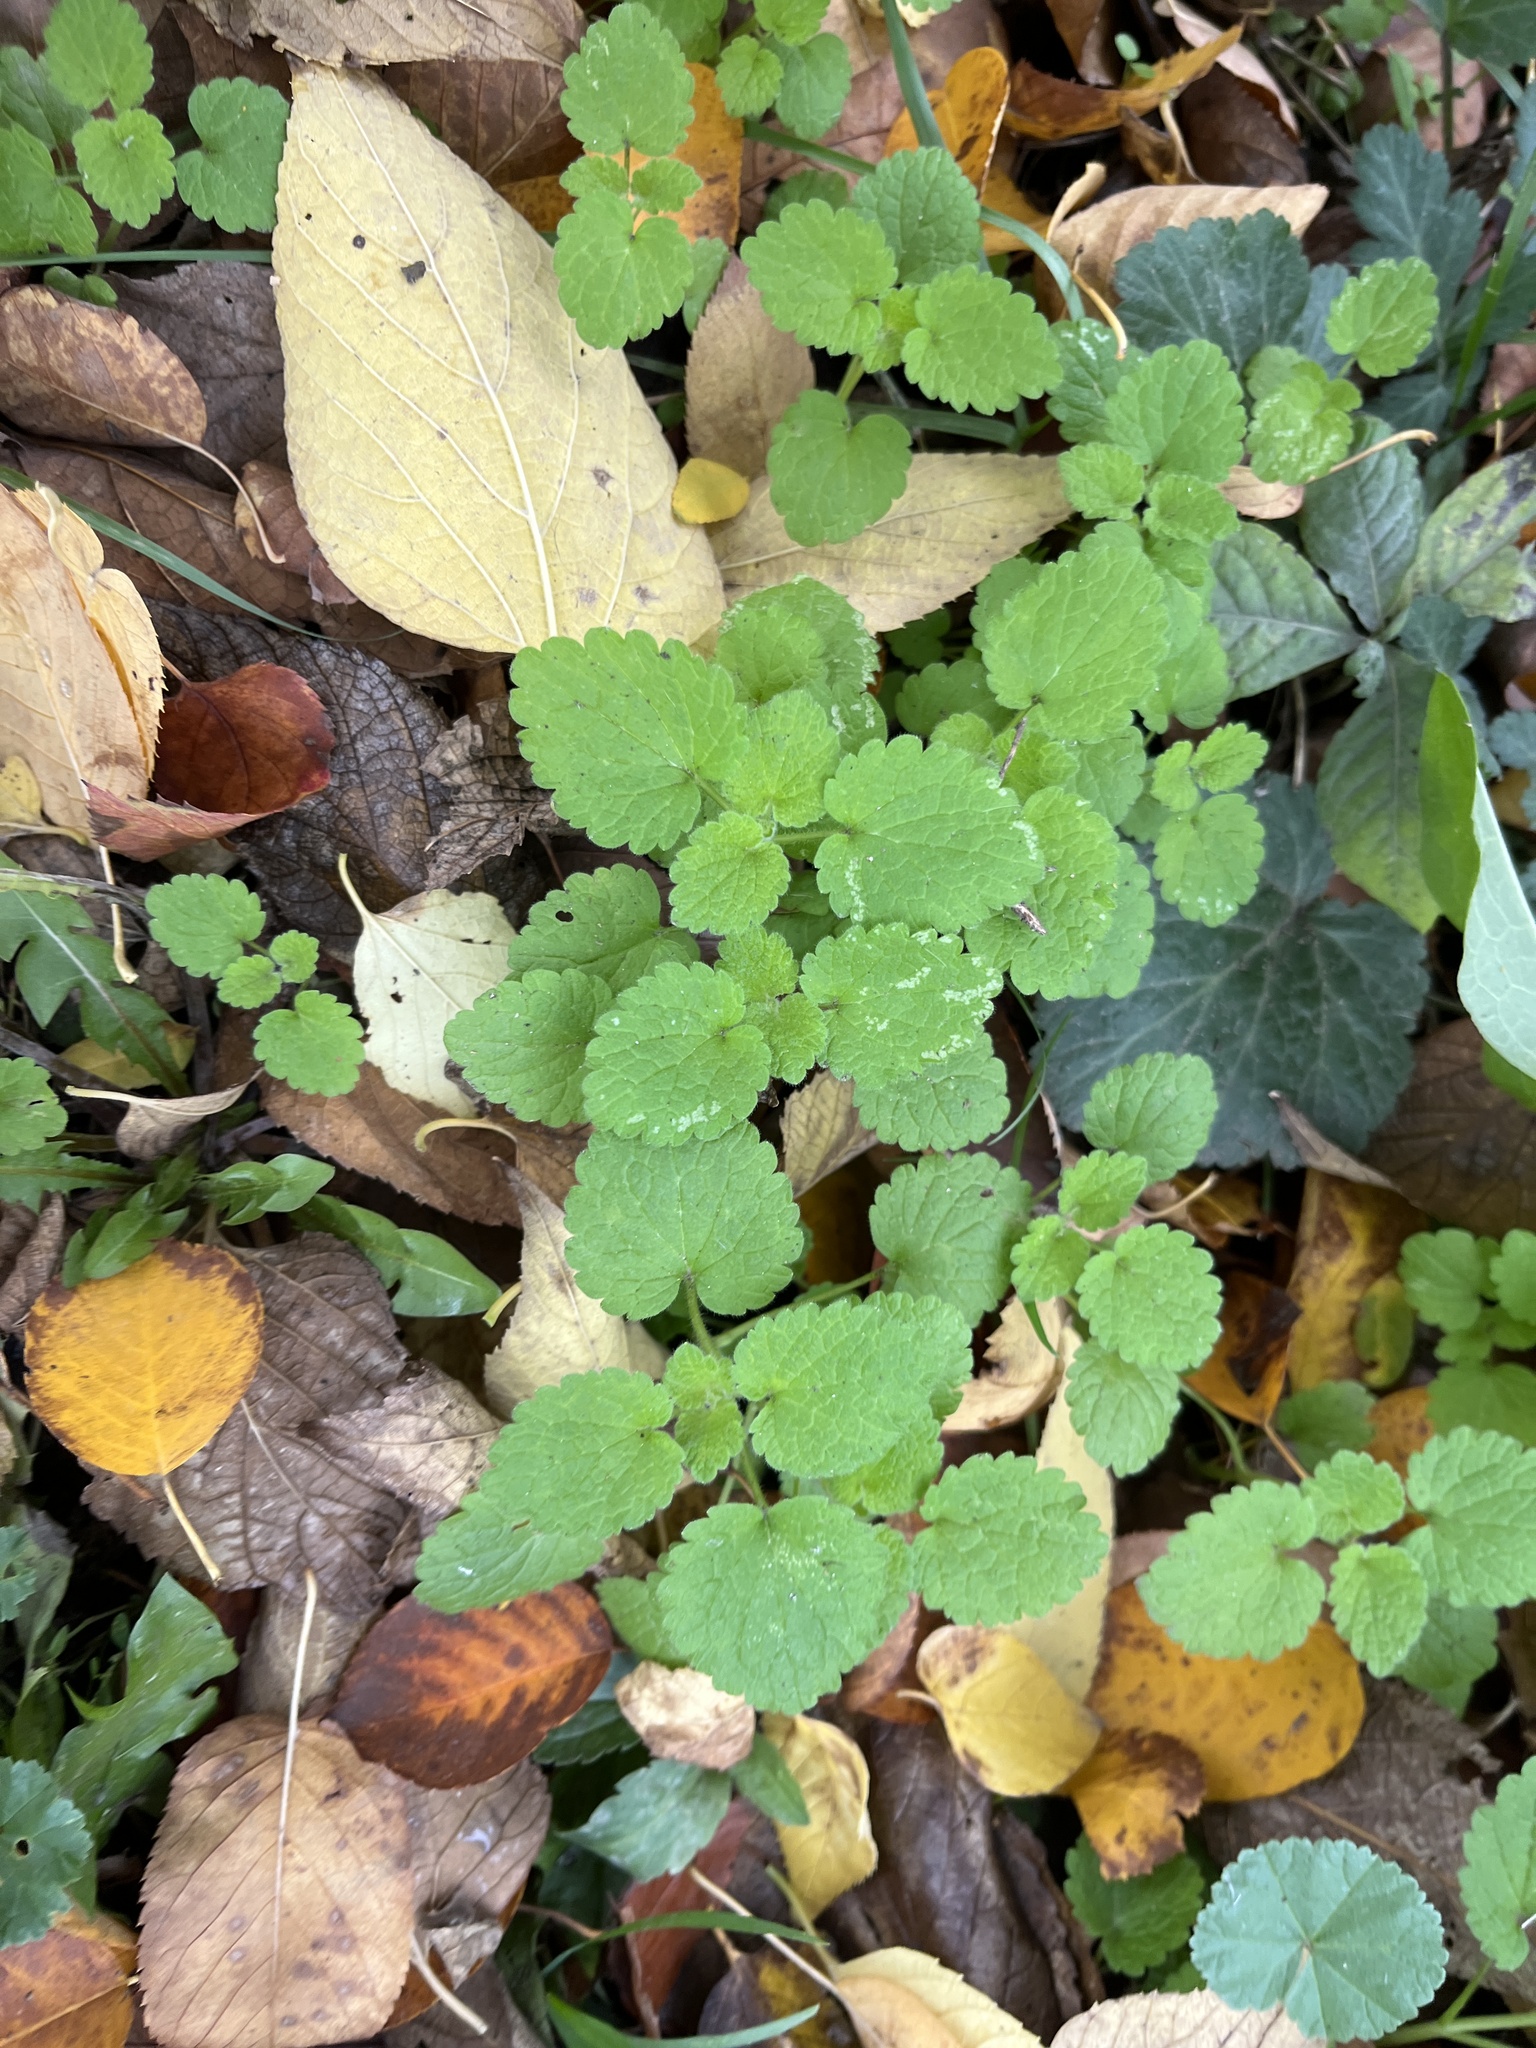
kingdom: Plantae
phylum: Tracheophyta
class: Magnoliopsida
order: Lamiales
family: Lamiaceae
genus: Lamium
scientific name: Lamium purpureum
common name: Red dead-nettle
